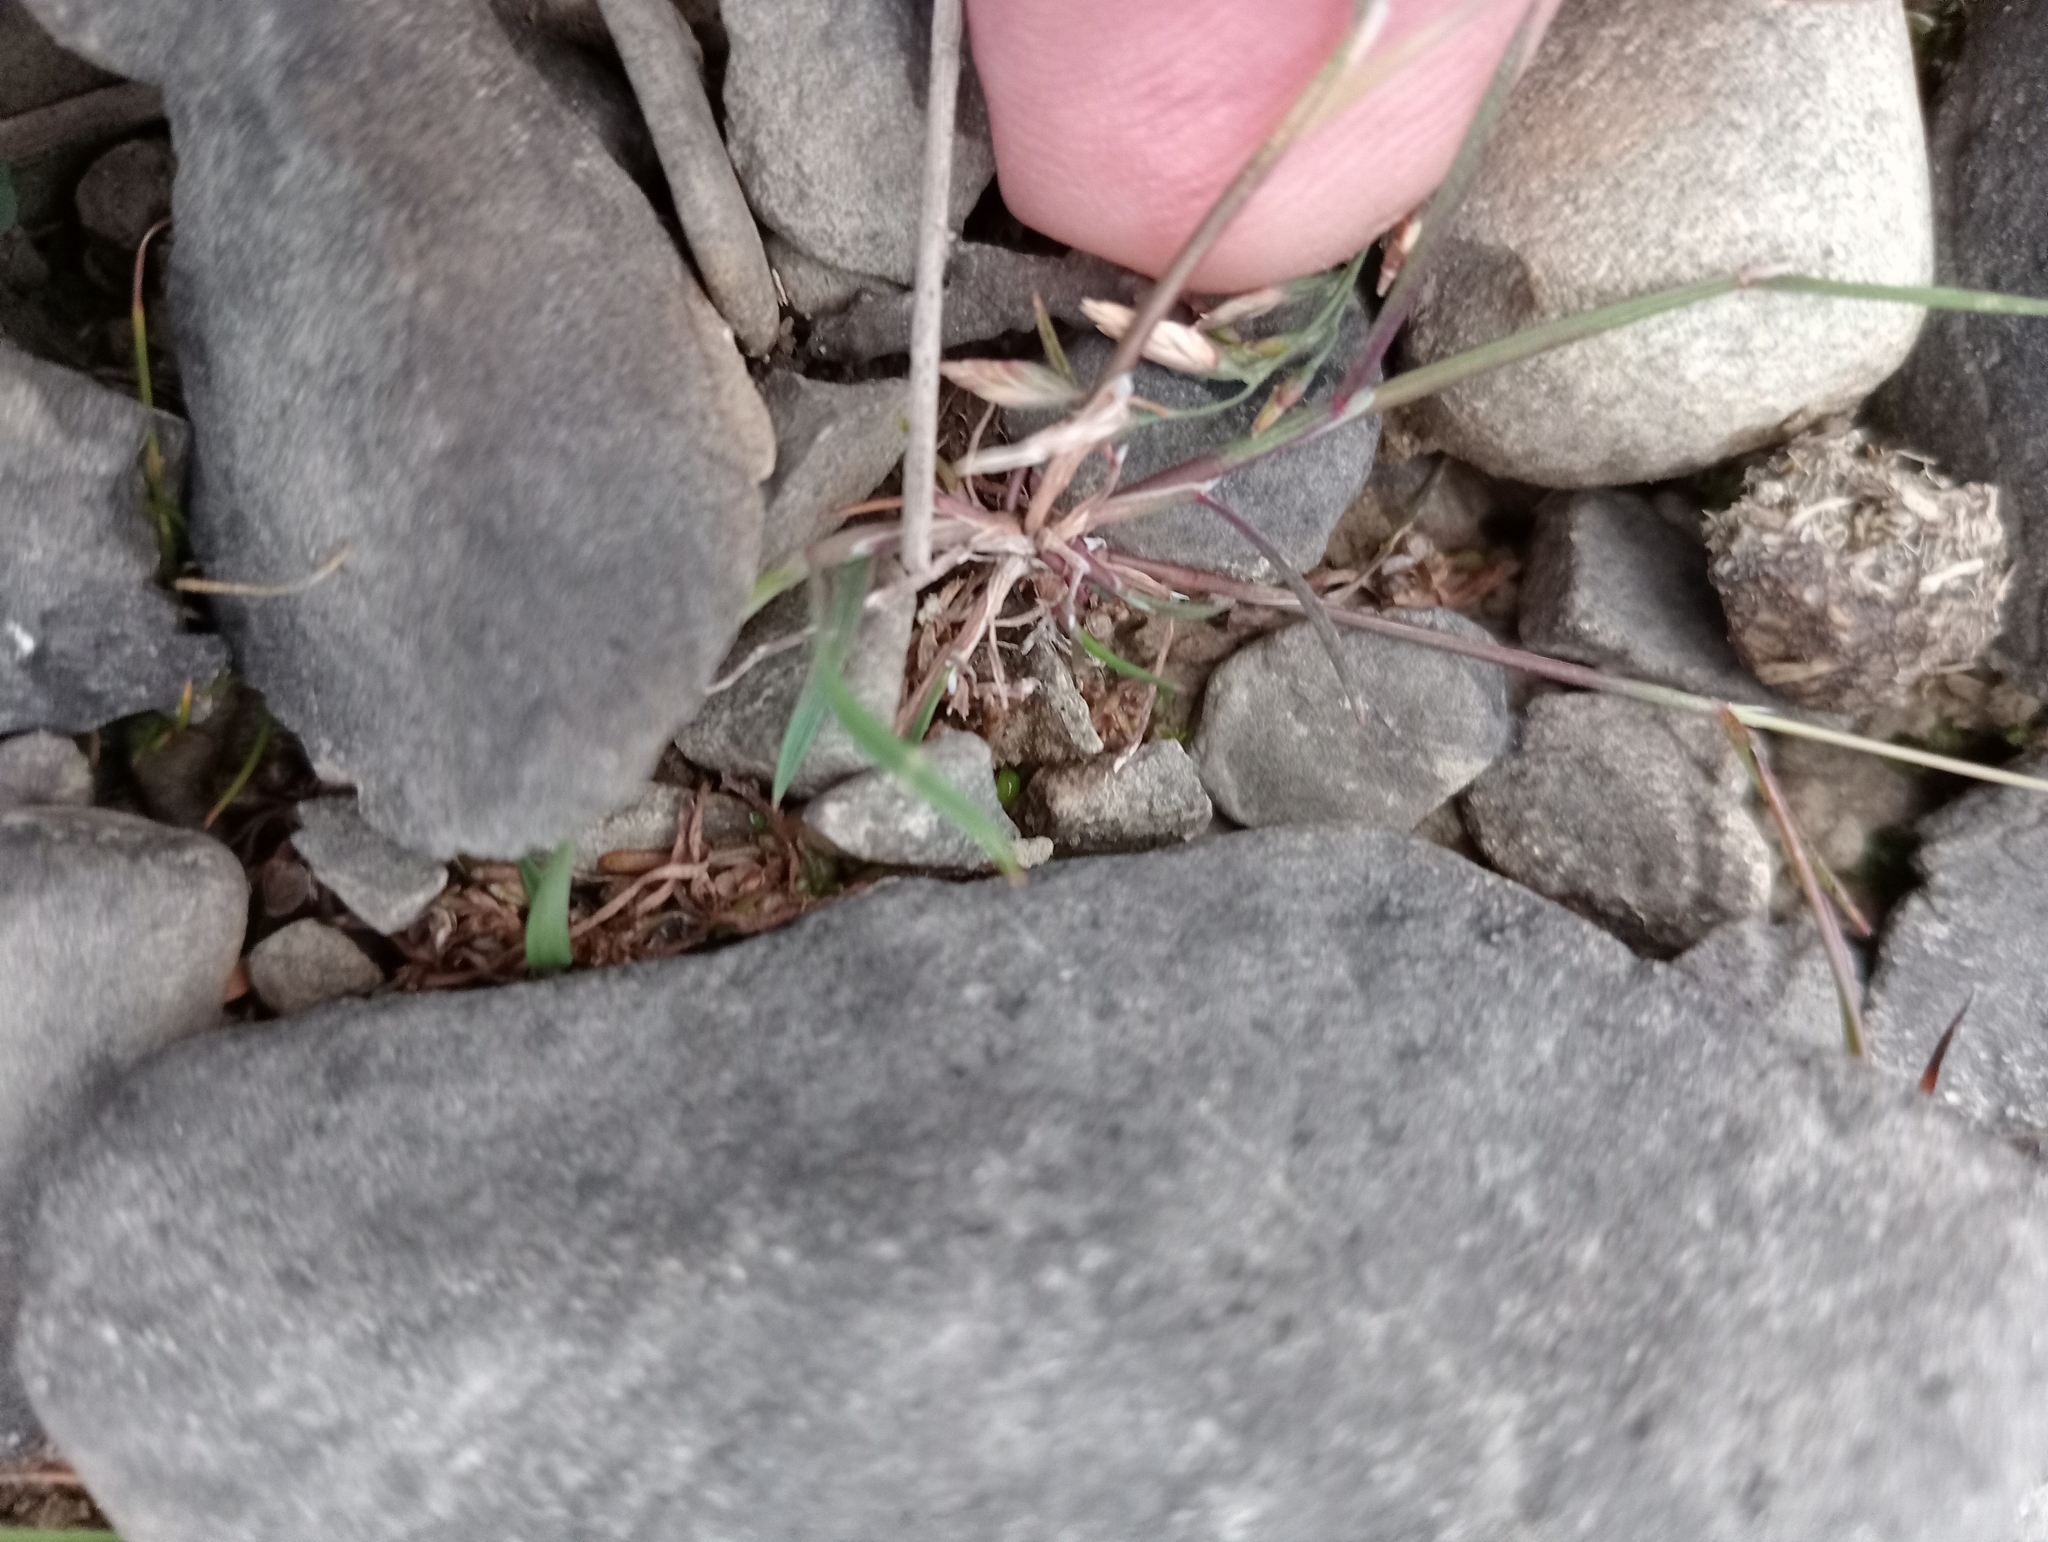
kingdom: Plantae
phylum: Tracheophyta
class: Liliopsida
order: Poales
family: Poaceae
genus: Lachnagrostis
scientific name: Lachnagrostis striata
